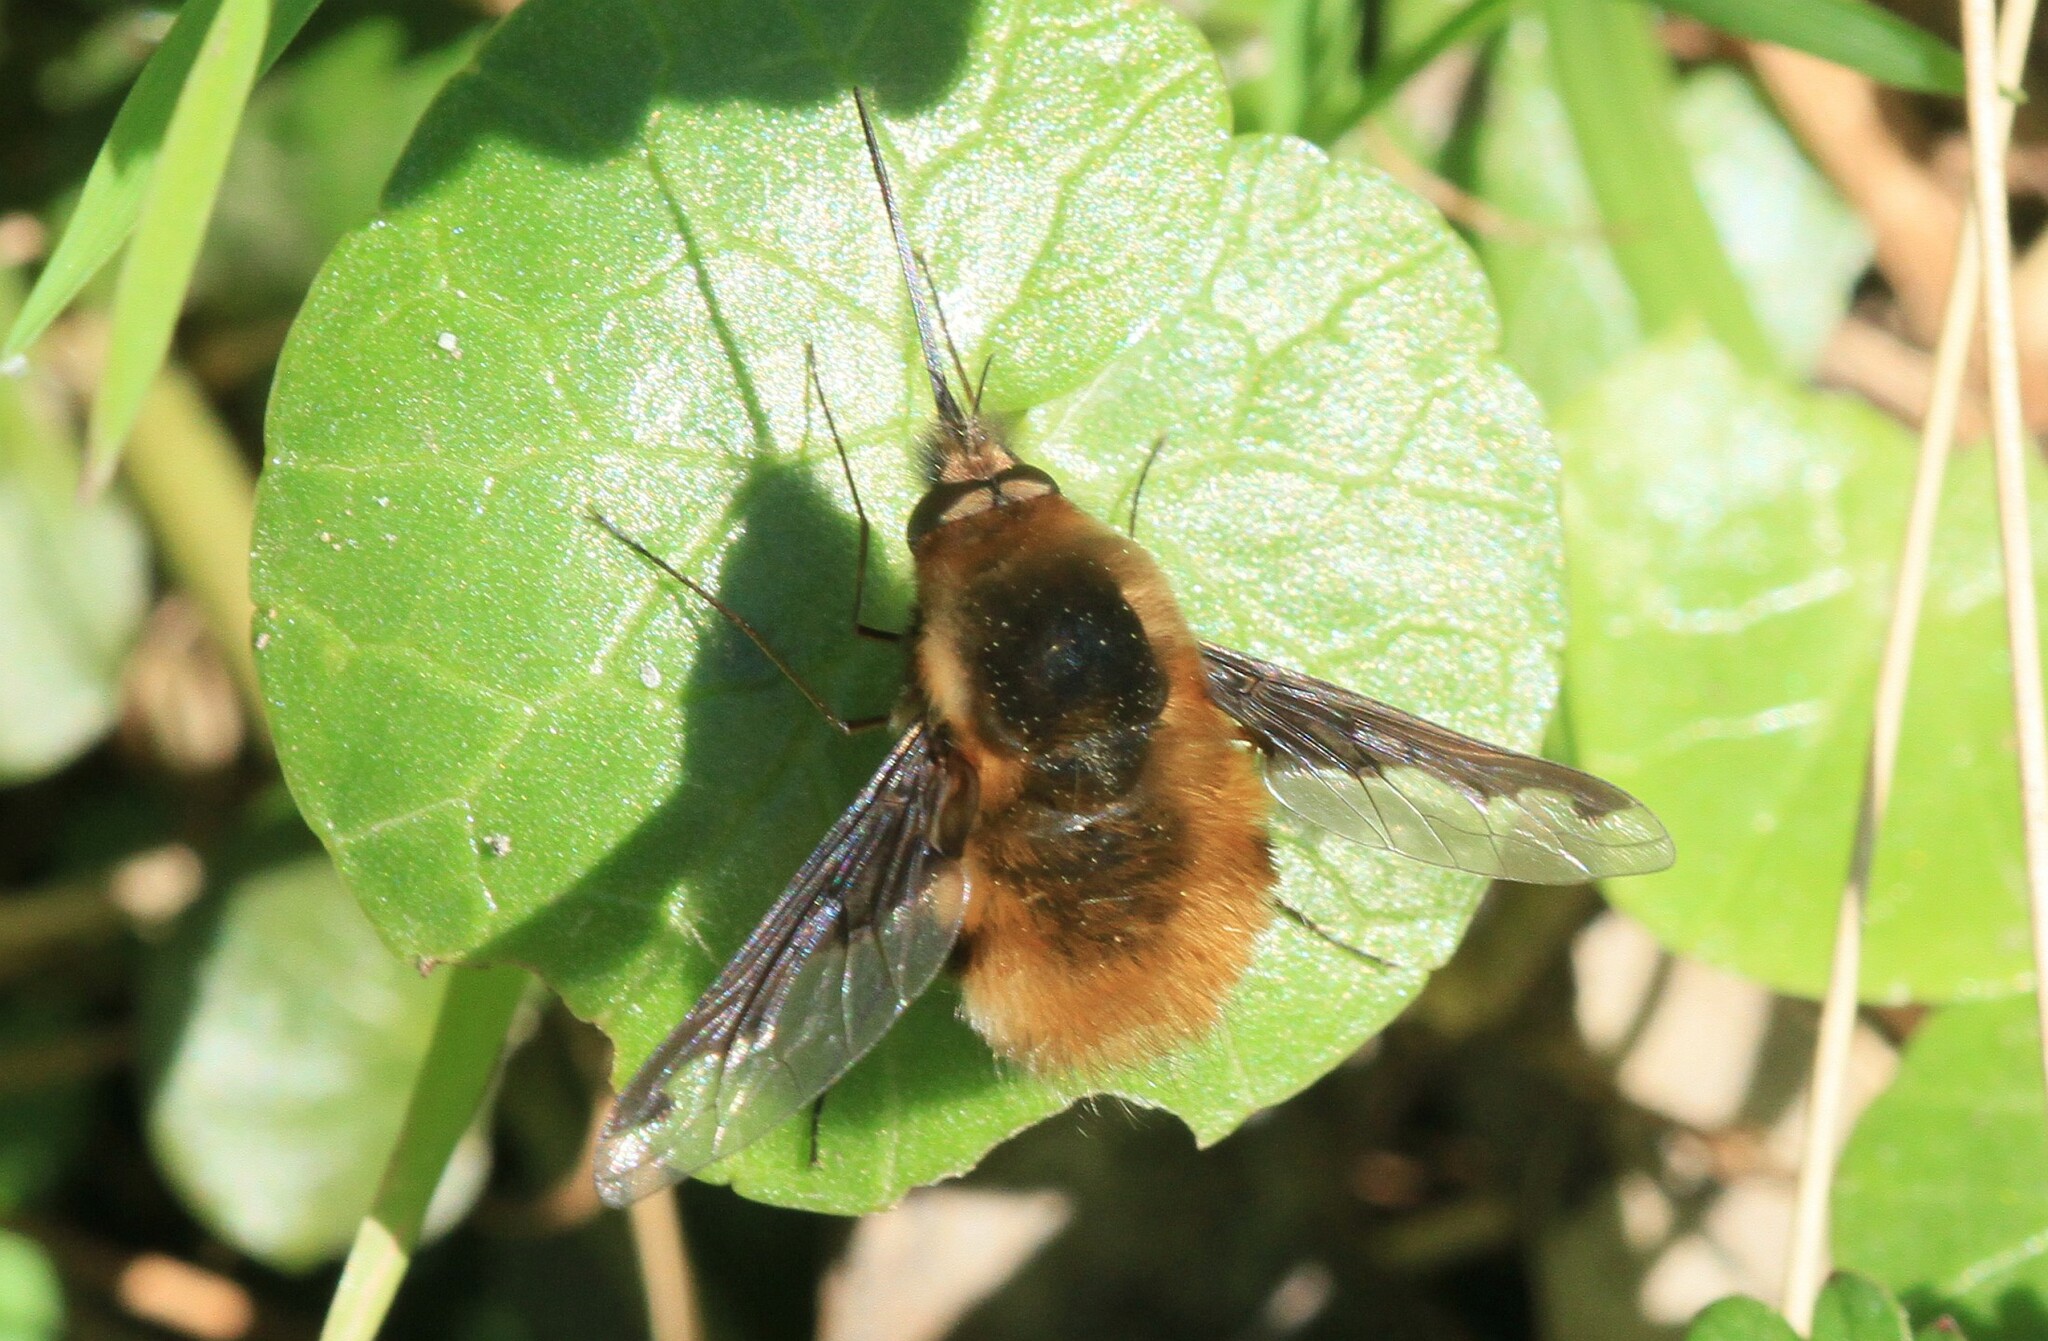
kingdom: Animalia
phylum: Arthropoda
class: Insecta
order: Diptera
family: Bombyliidae
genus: Bombylius
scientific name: Bombylius major
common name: Bee fly
